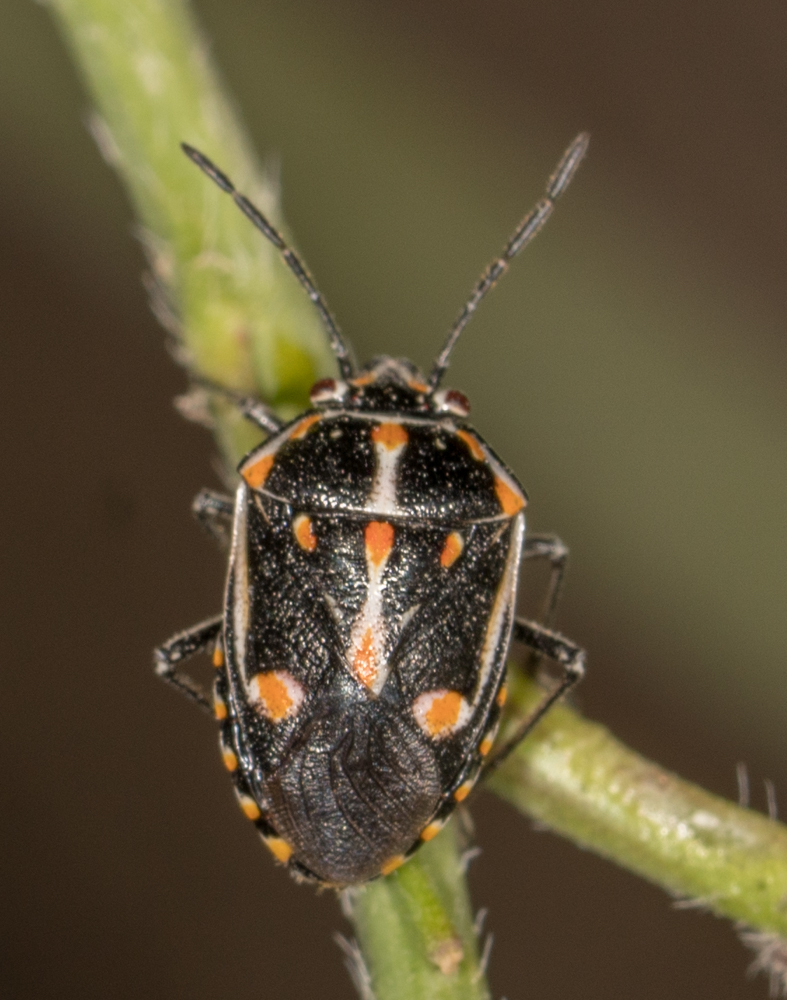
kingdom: Animalia
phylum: Arthropoda
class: Insecta
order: Hemiptera
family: Pentatomidae
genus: Bagrada
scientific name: Bagrada hilaris
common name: Bagrada bug
